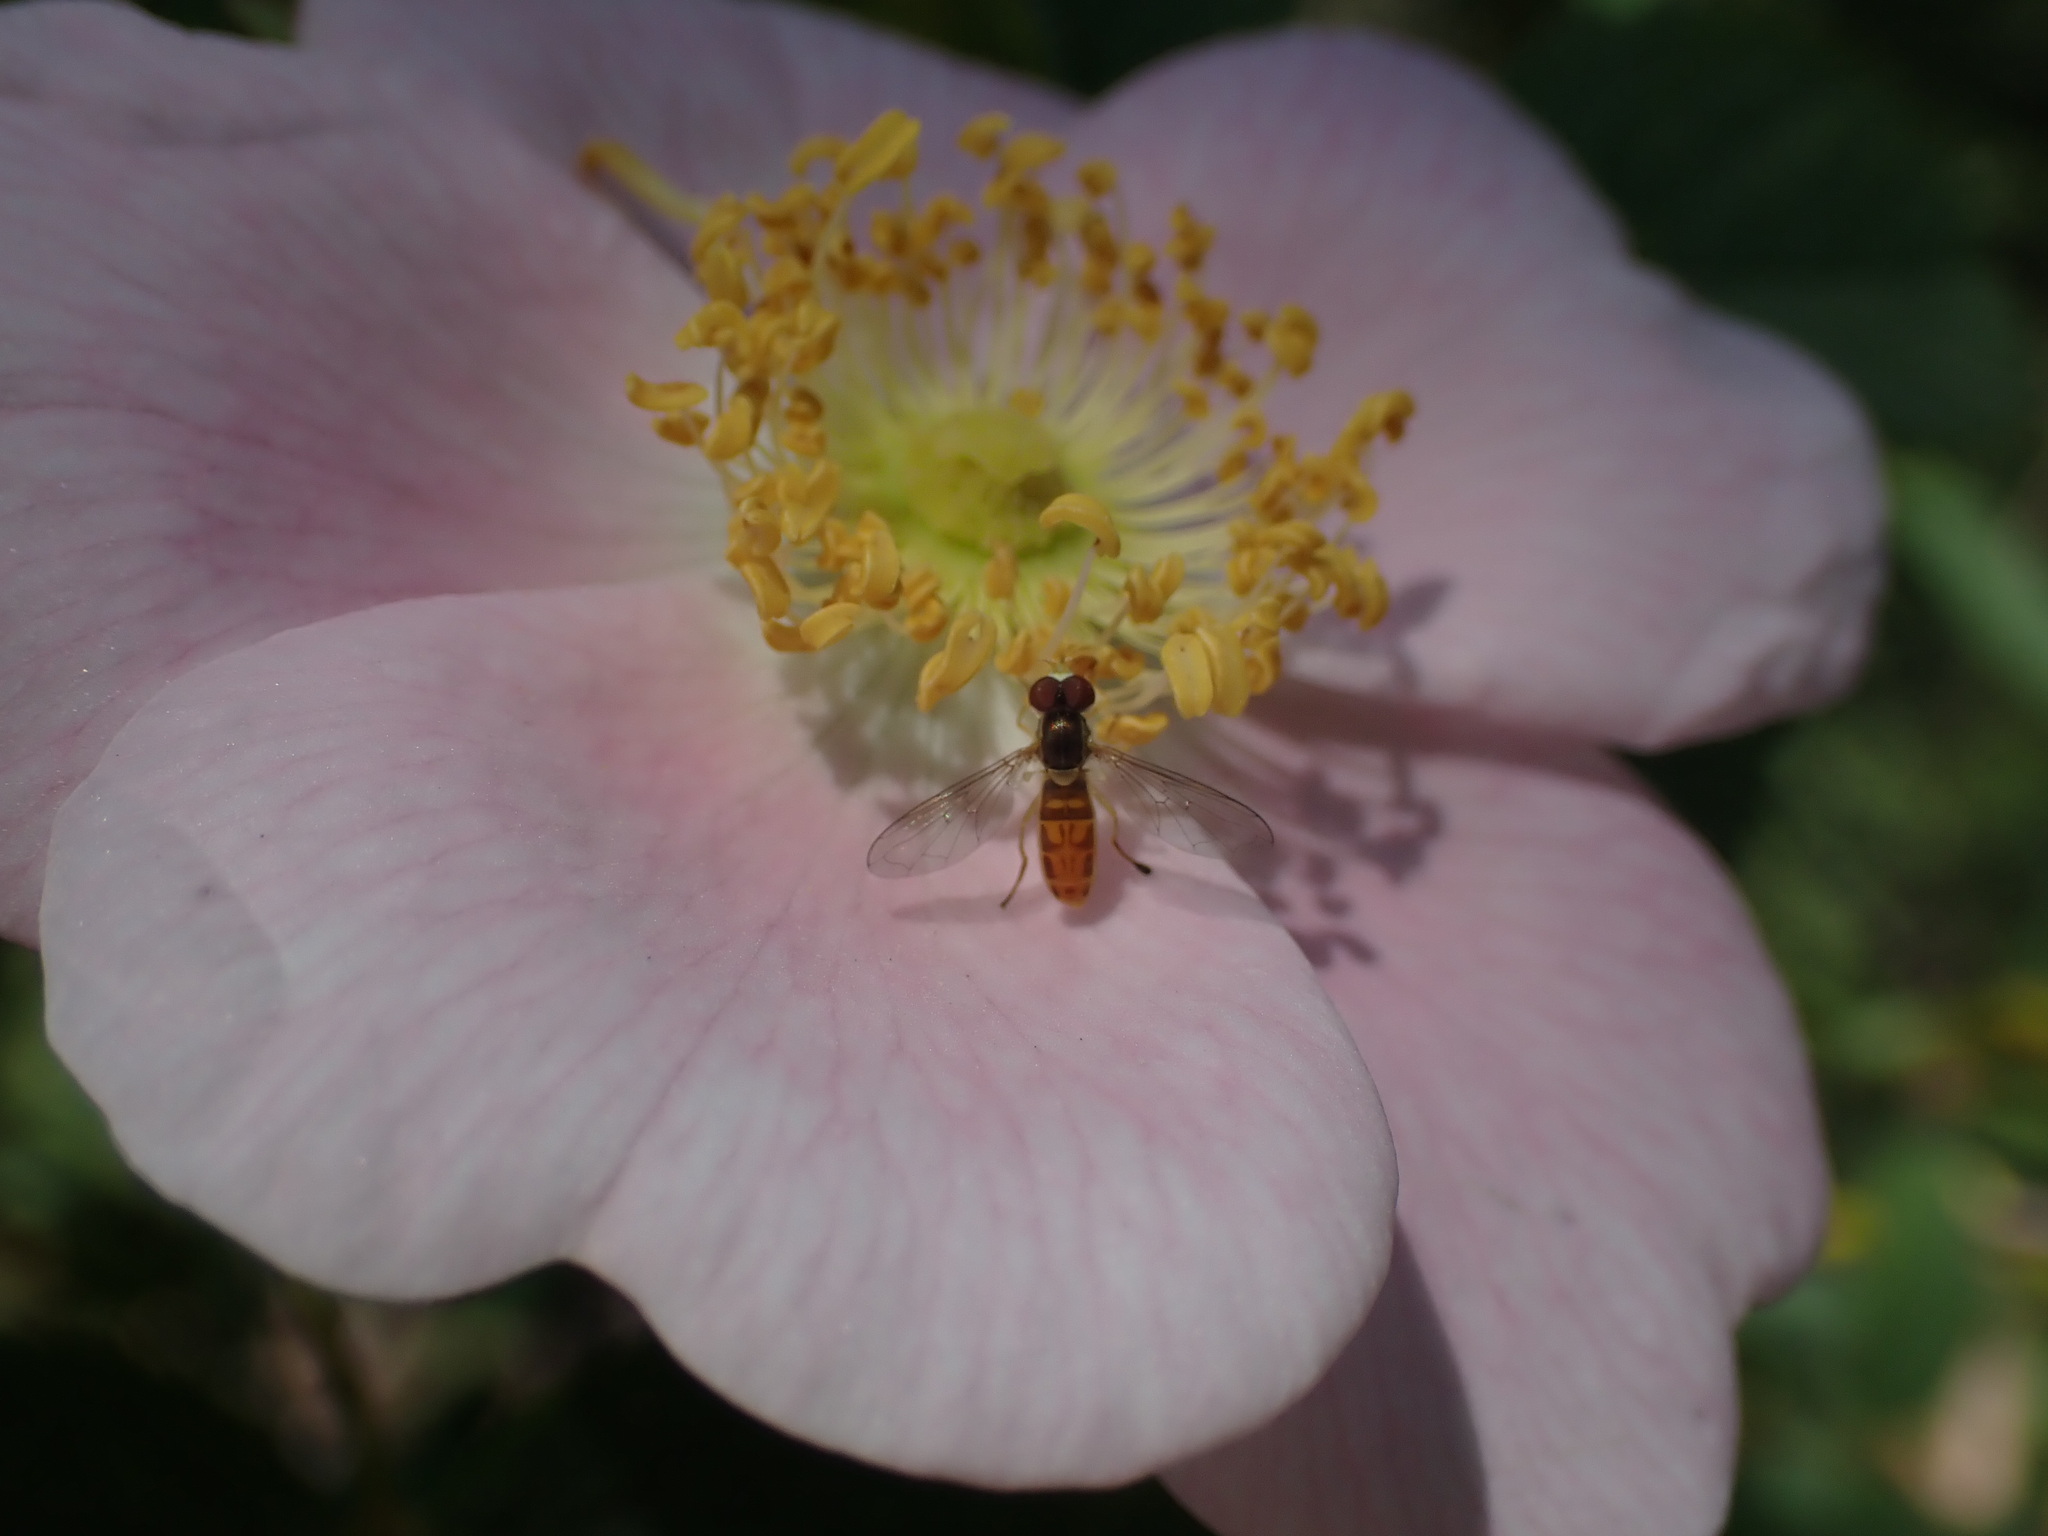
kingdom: Animalia
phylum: Arthropoda
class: Insecta
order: Diptera
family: Syrphidae
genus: Toxomerus
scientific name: Toxomerus marginatus
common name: Syrphid fly
